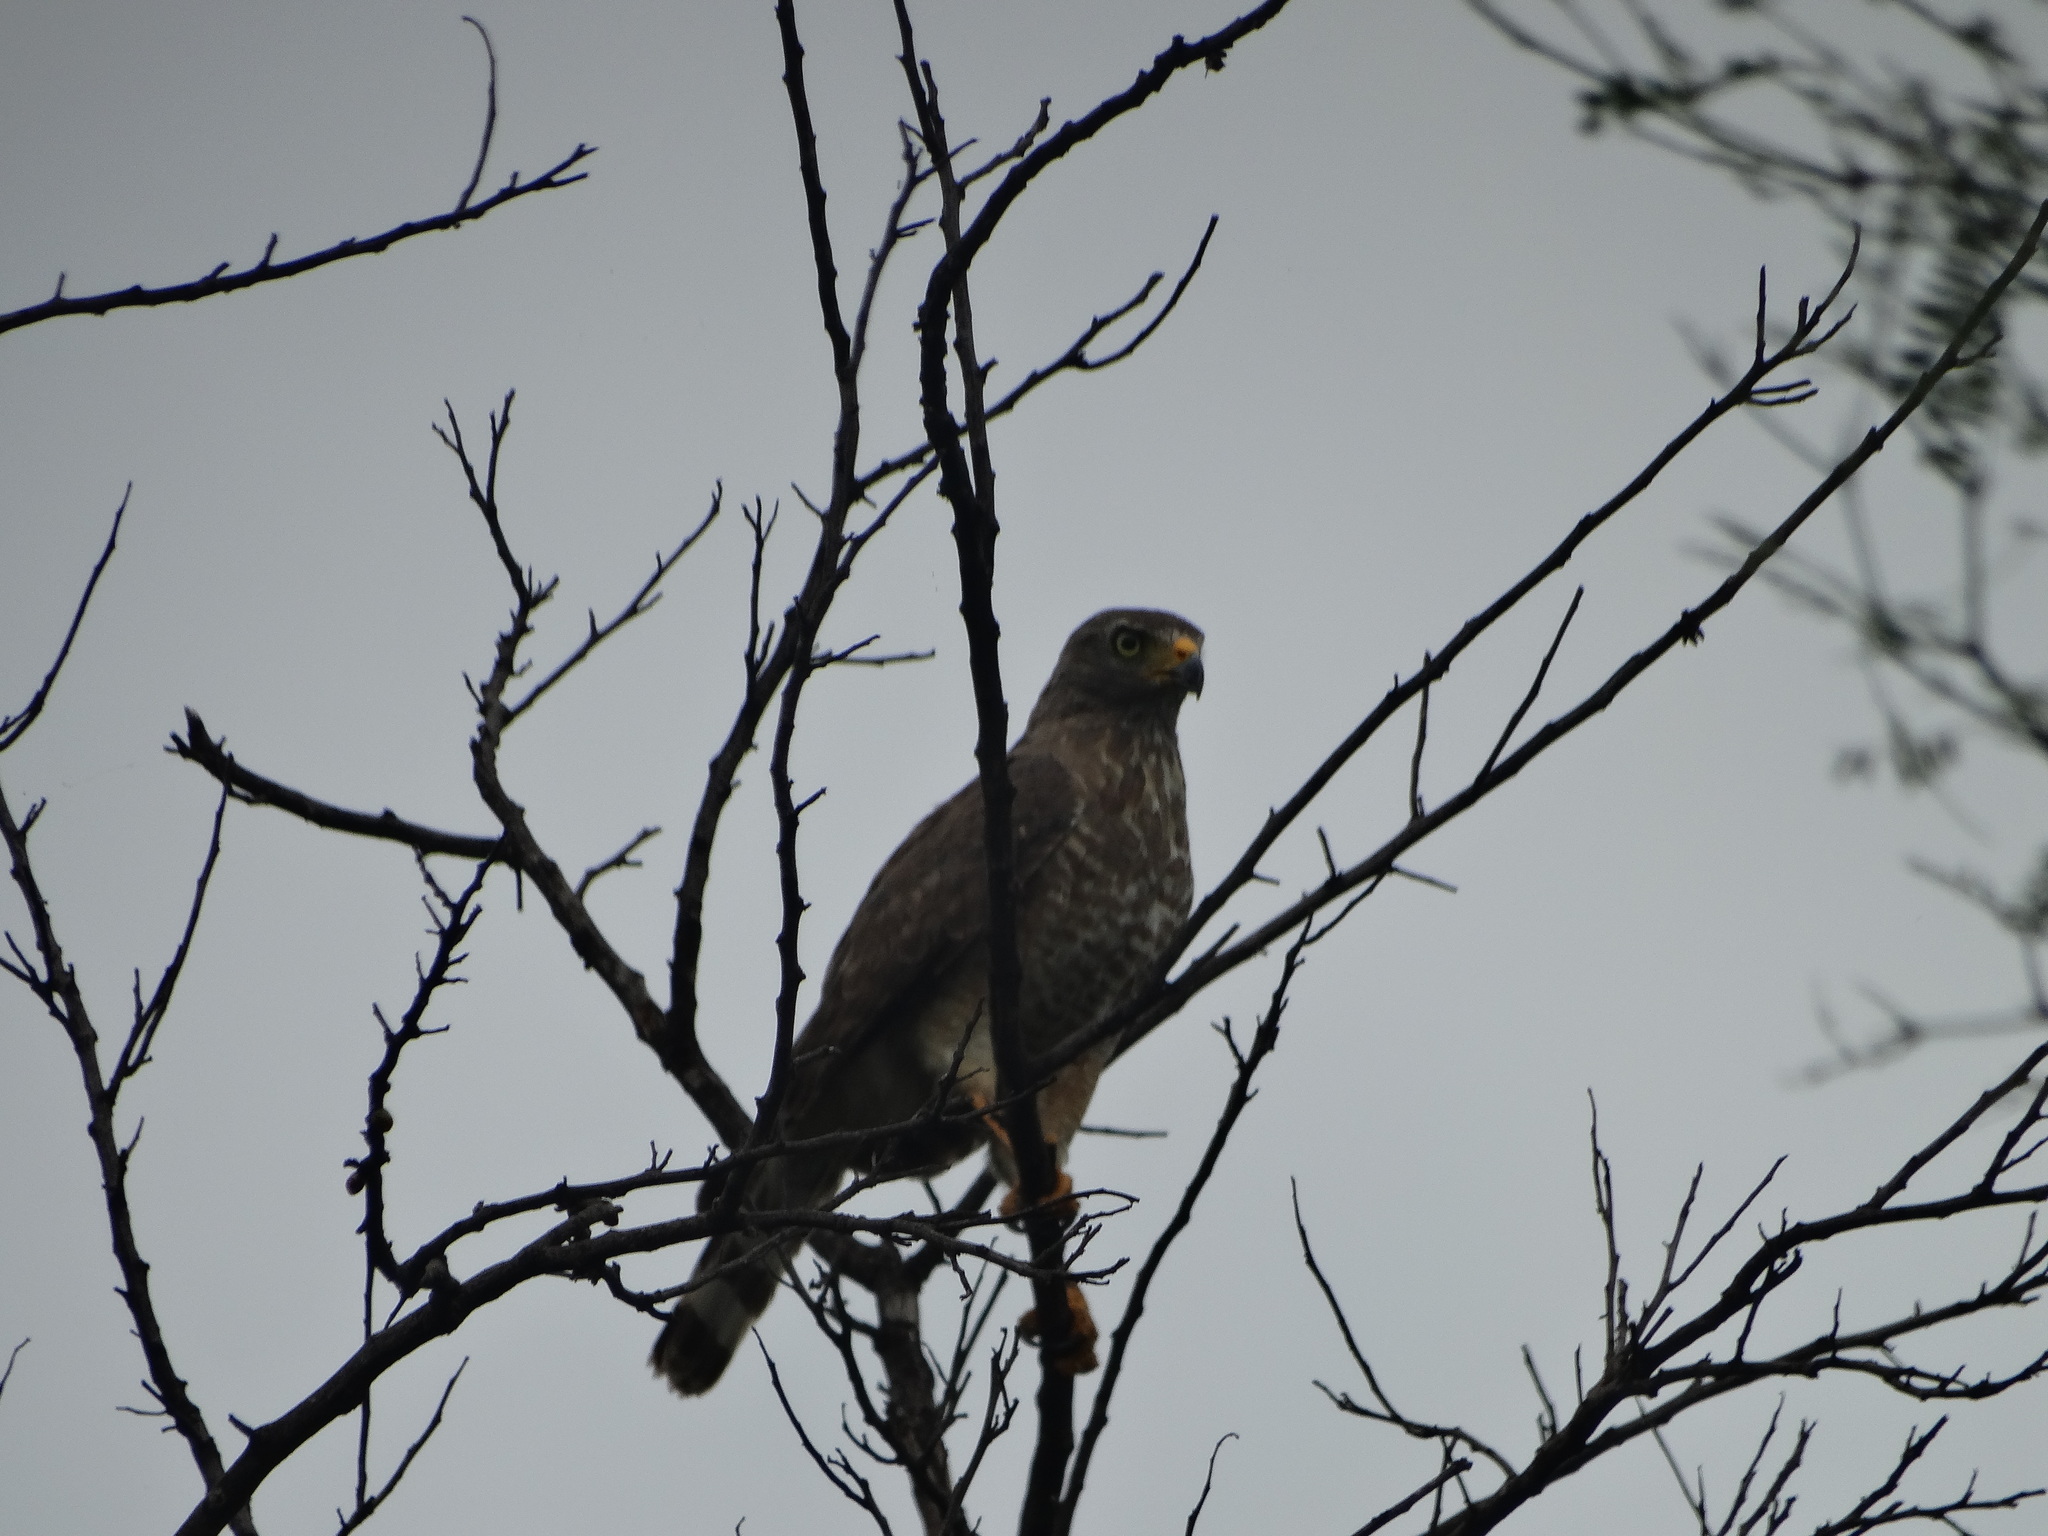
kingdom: Animalia
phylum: Chordata
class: Aves
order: Accipitriformes
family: Accipitridae
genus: Rupornis
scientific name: Rupornis magnirostris
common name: Roadside hawk
